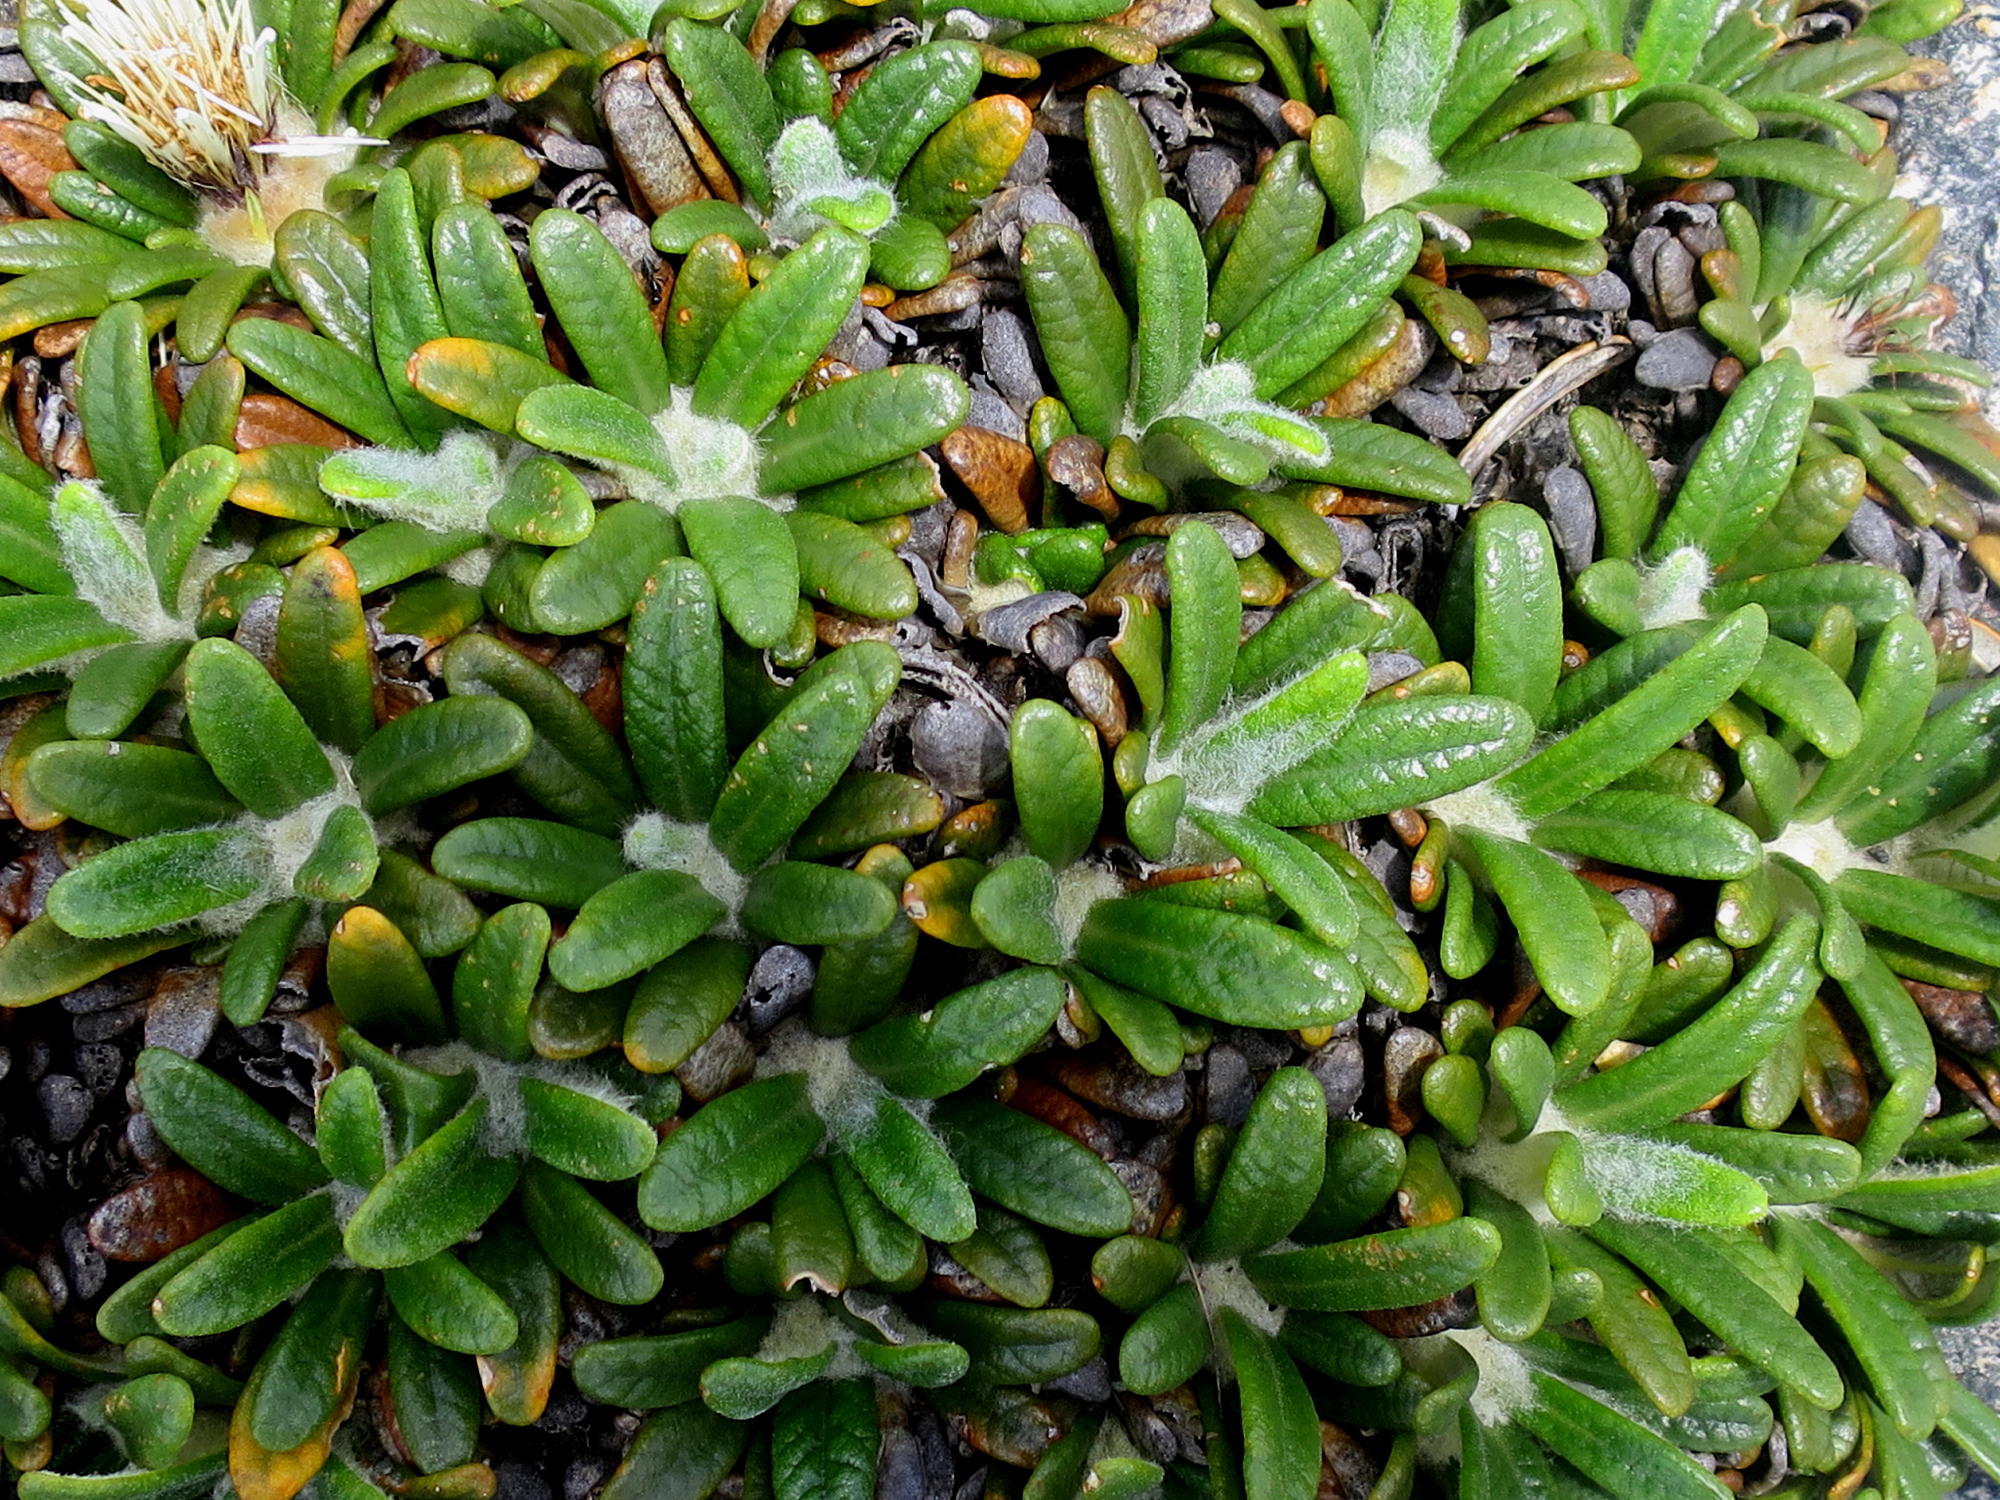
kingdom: Plantae
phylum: Tracheophyta
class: Magnoliopsida
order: Asterales
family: Asteraceae
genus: Oldenburgia
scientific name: Oldenburgia paradoxa
